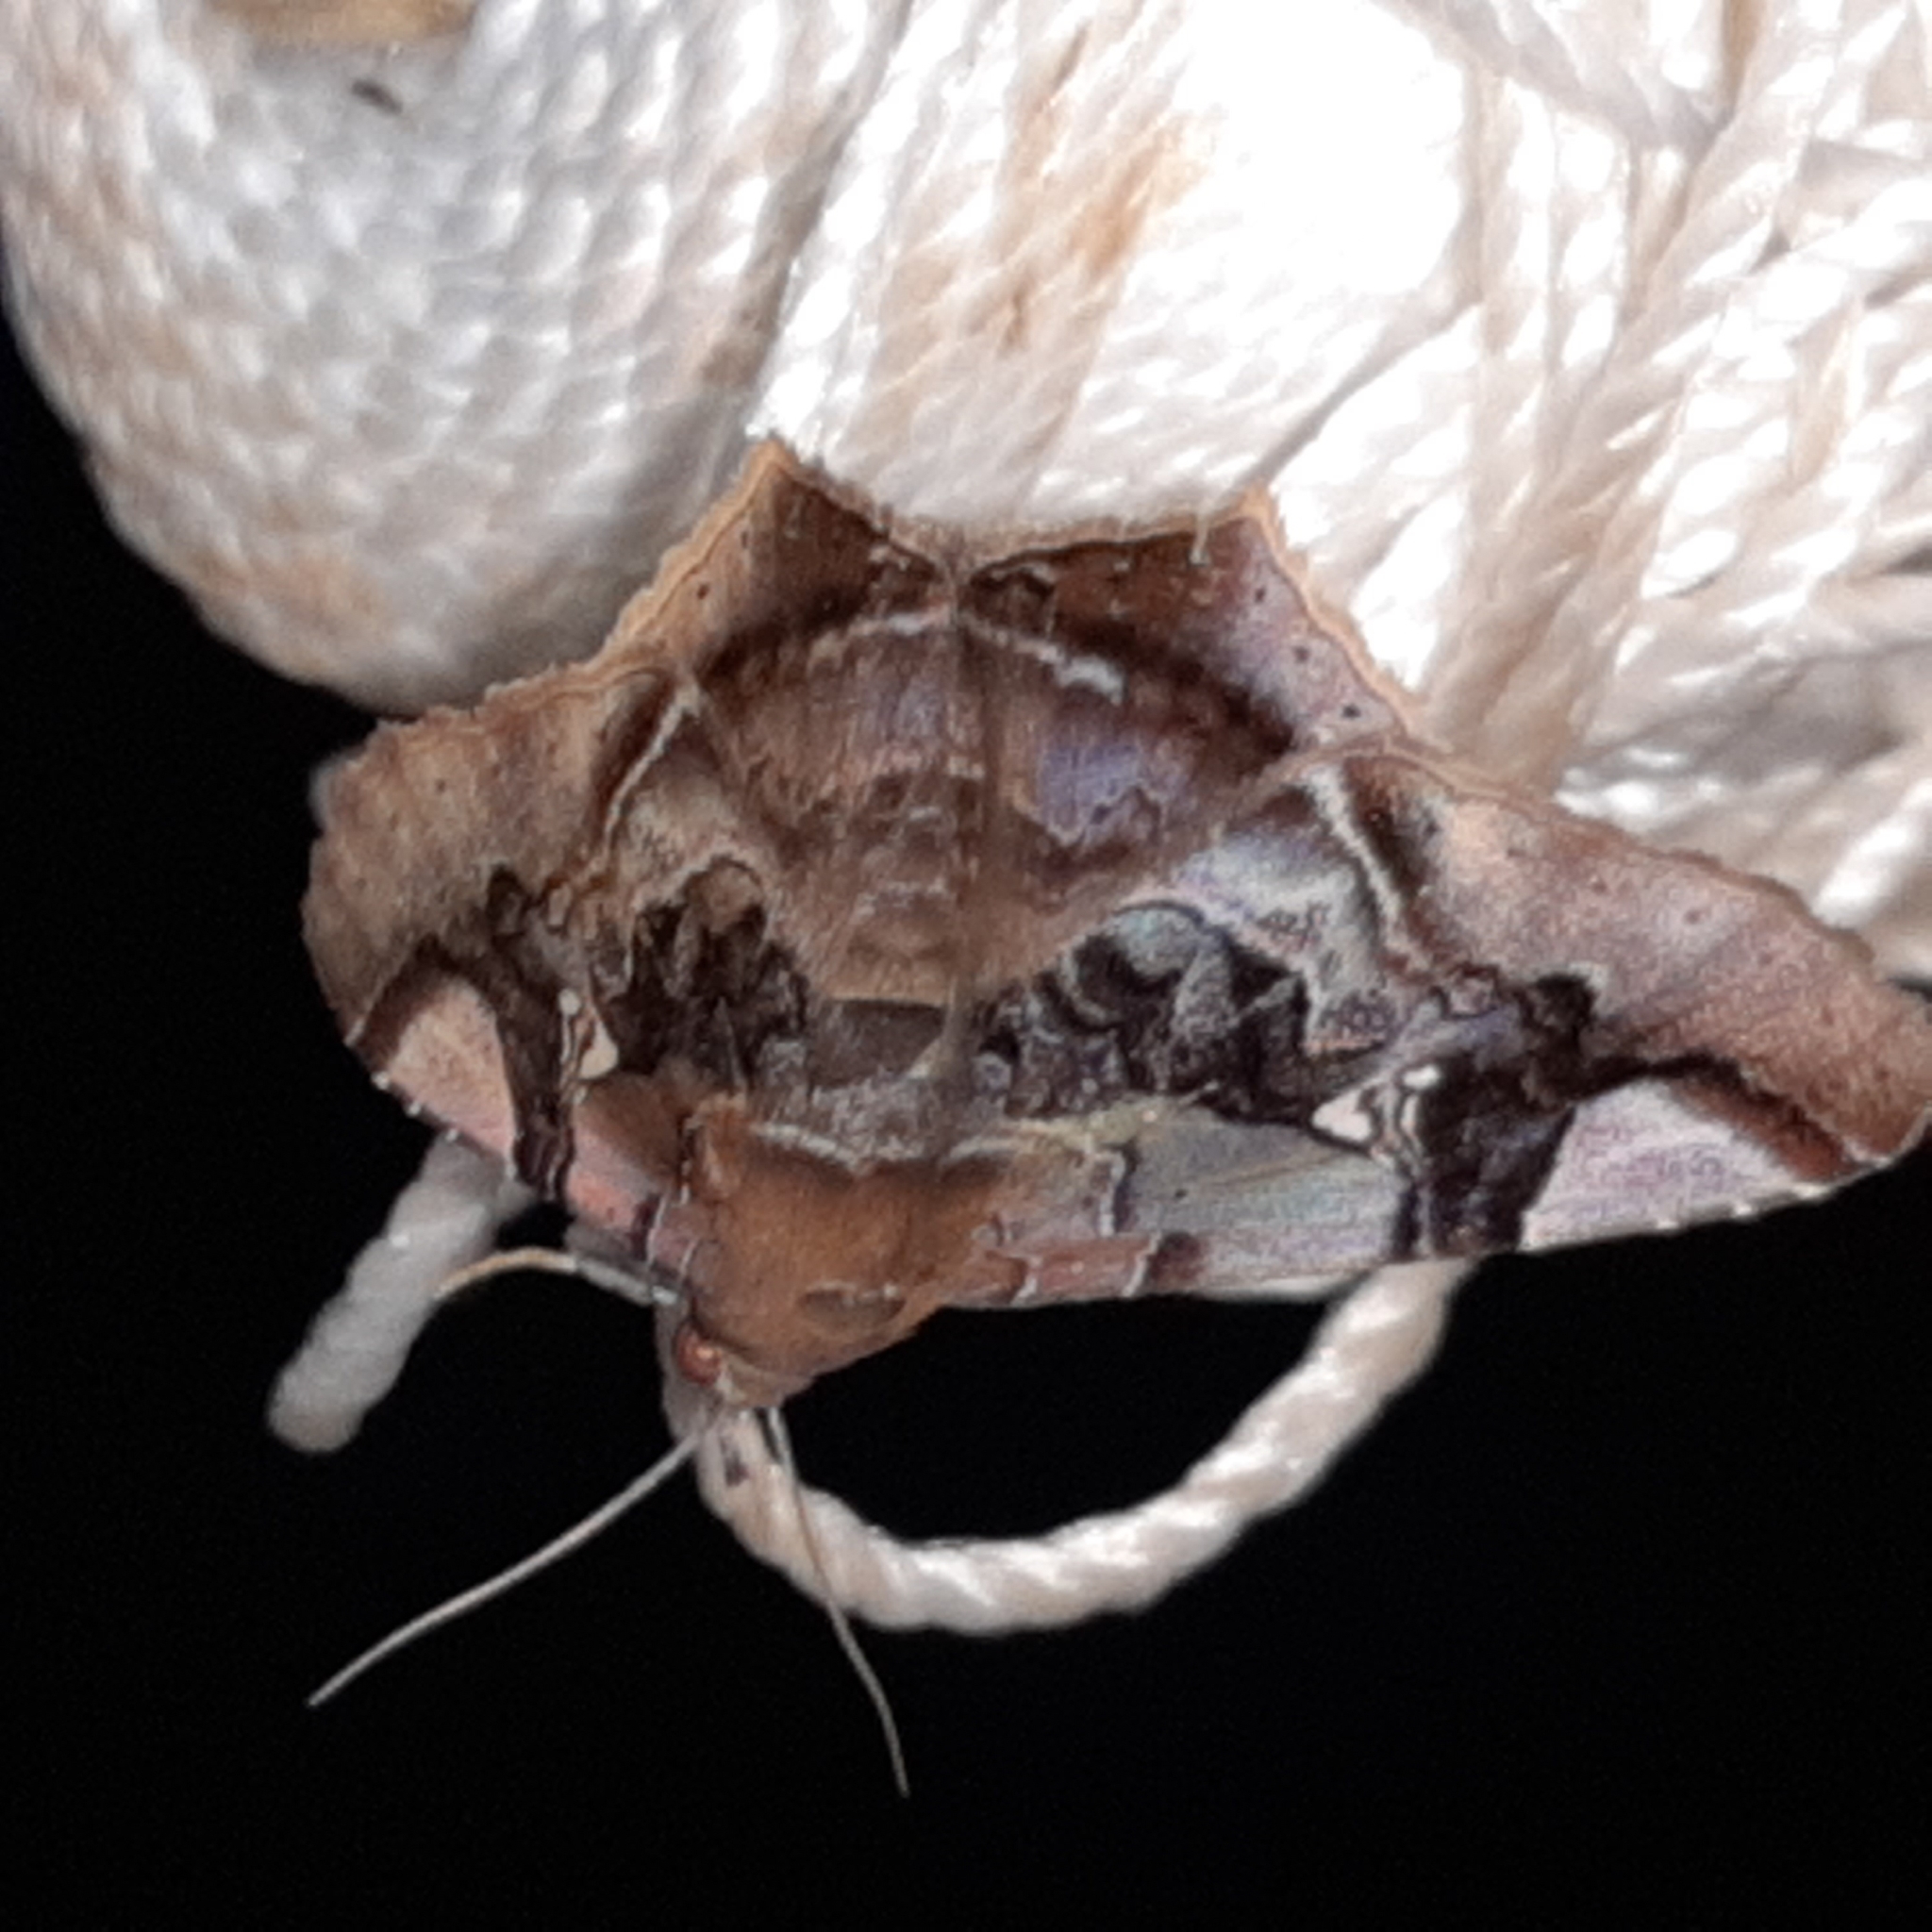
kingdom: Animalia
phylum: Arthropoda
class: Insecta
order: Lepidoptera
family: Erebidae
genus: Euclystis
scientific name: Euclystis guerini
